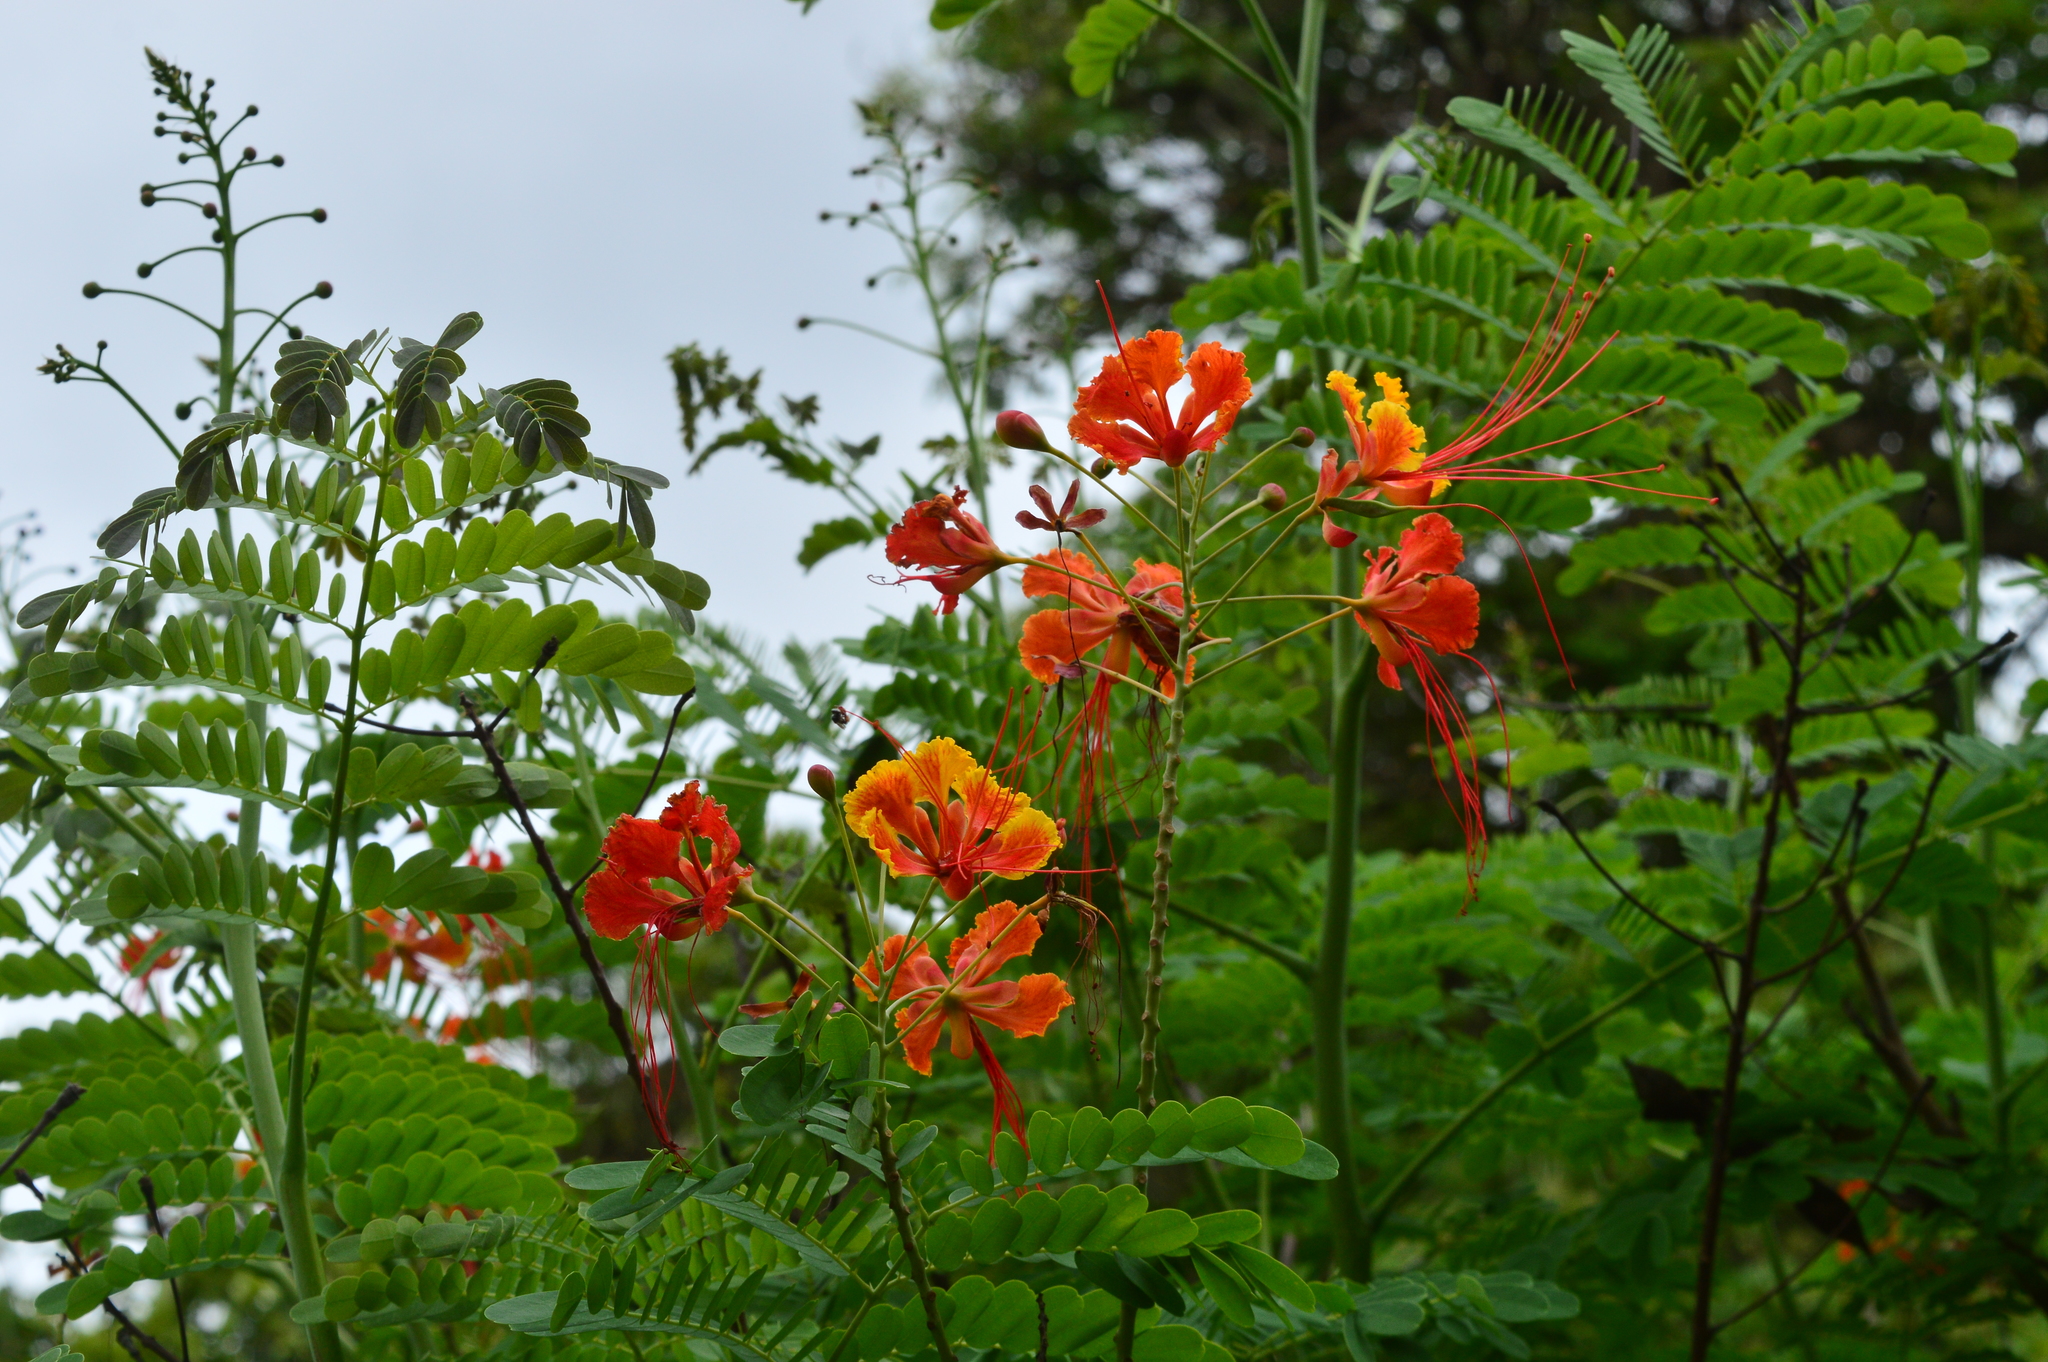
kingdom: Plantae
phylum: Tracheophyta
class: Magnoliopsida
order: Fabales
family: Fabaceae
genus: Caesalpinia
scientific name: Caesalpinia pulcherrima
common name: Pride-of-barbados
